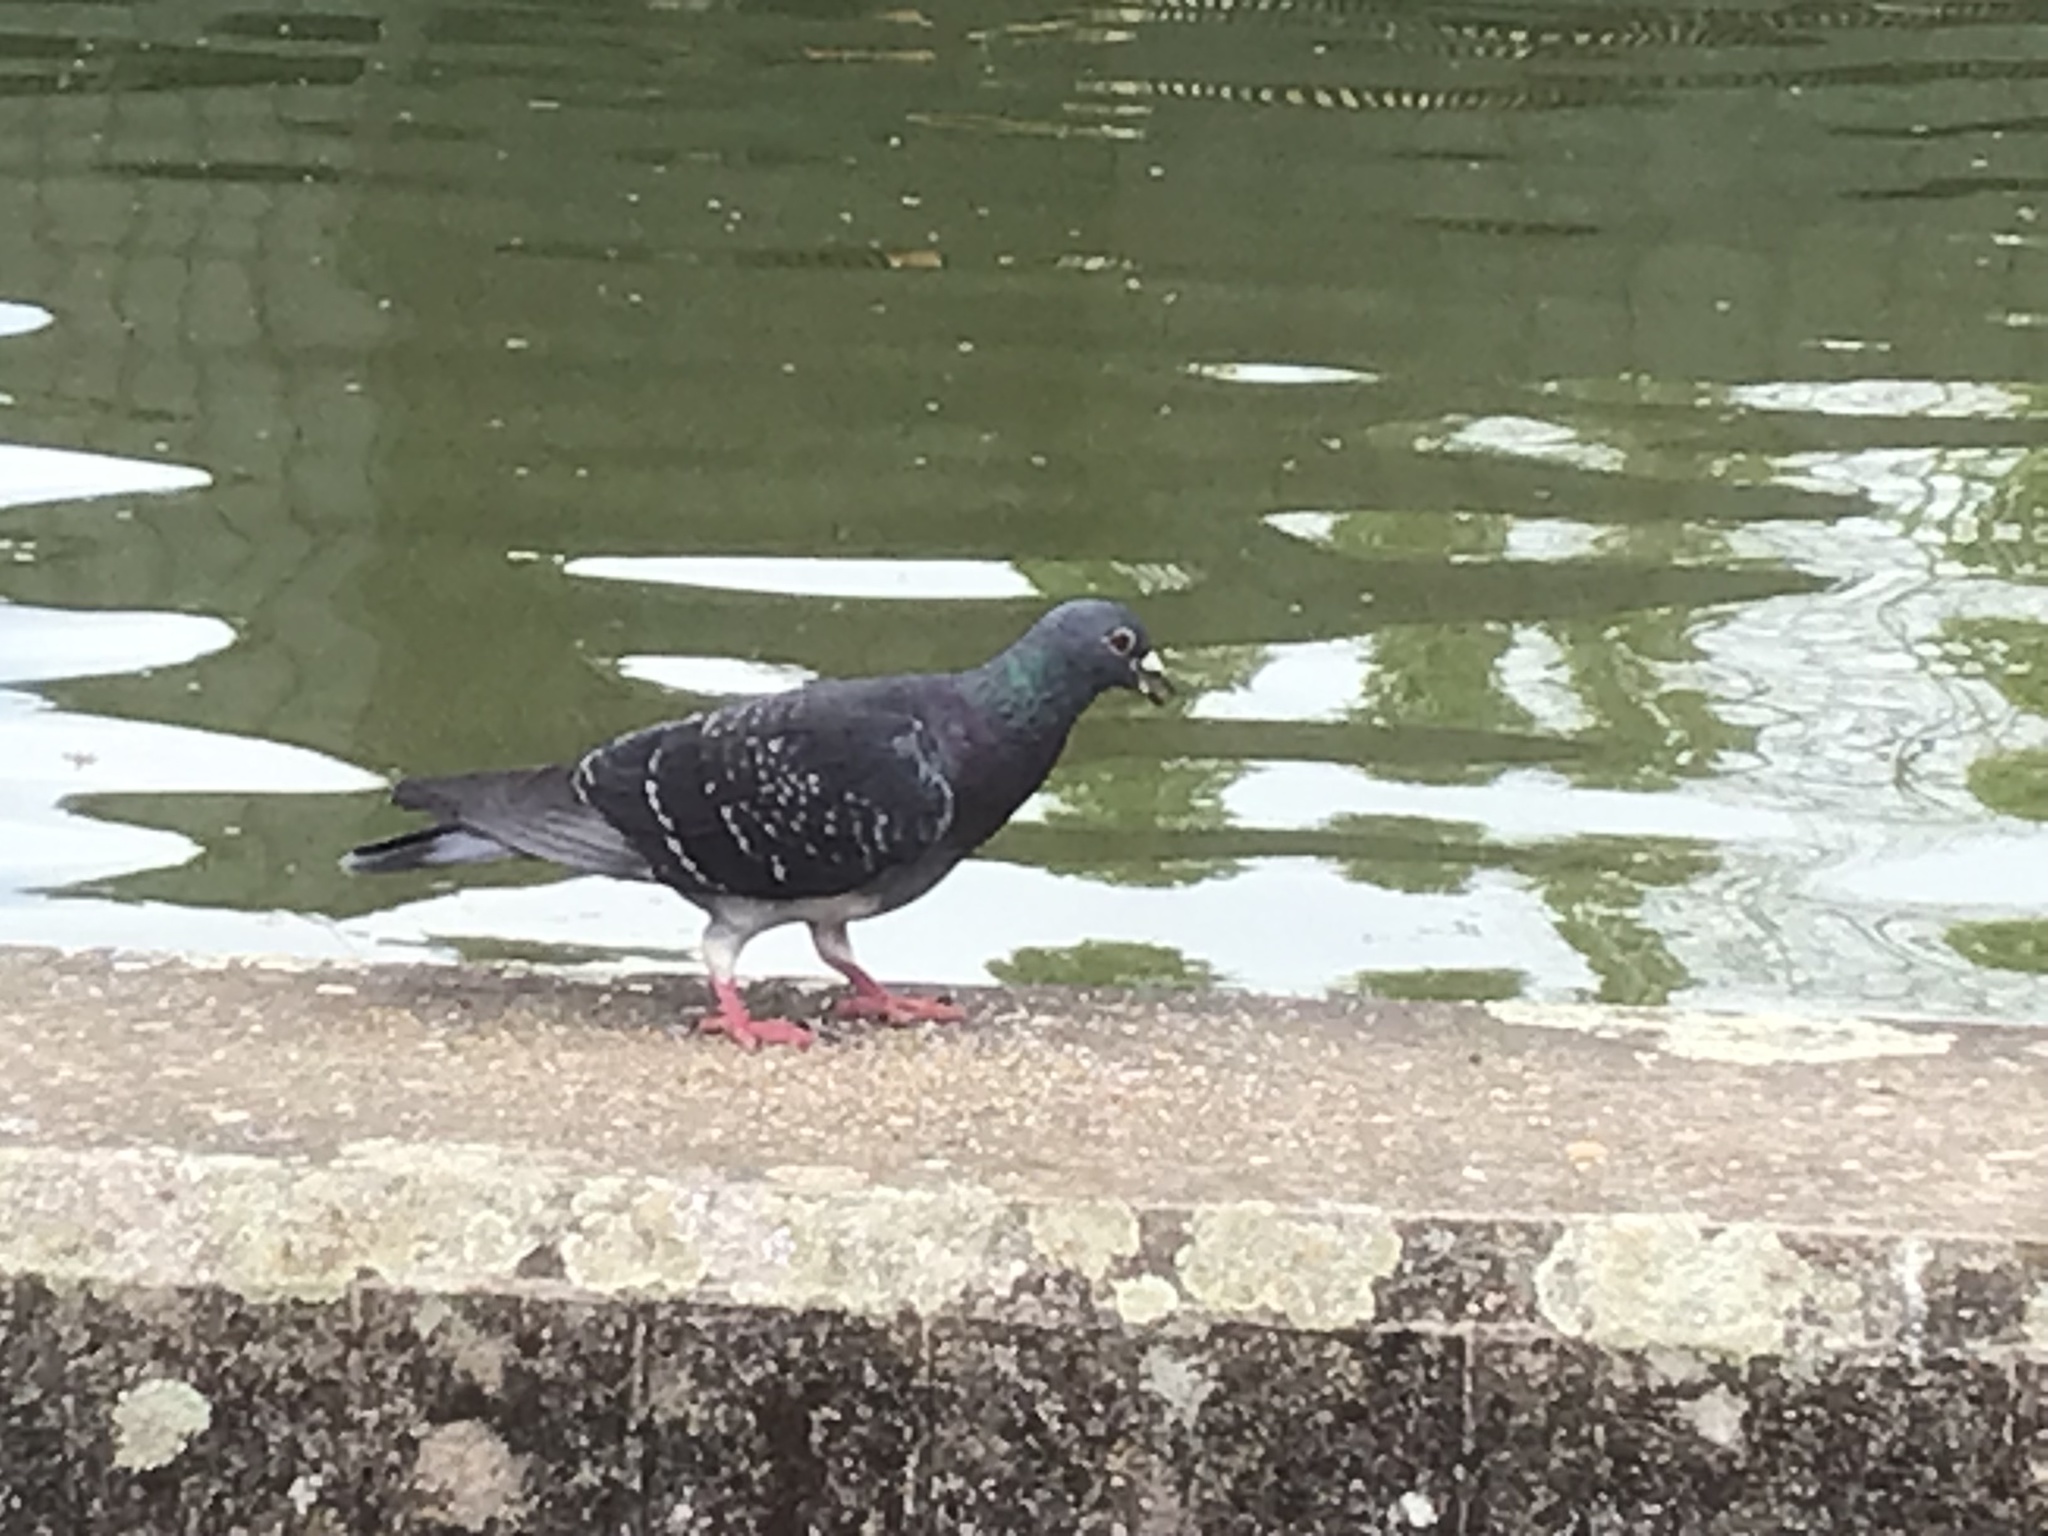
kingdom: Animalia
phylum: Chordata
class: Aves
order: Columbiformes
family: Columbidae
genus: Columba
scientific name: Columba livia
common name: Rock pigeon
